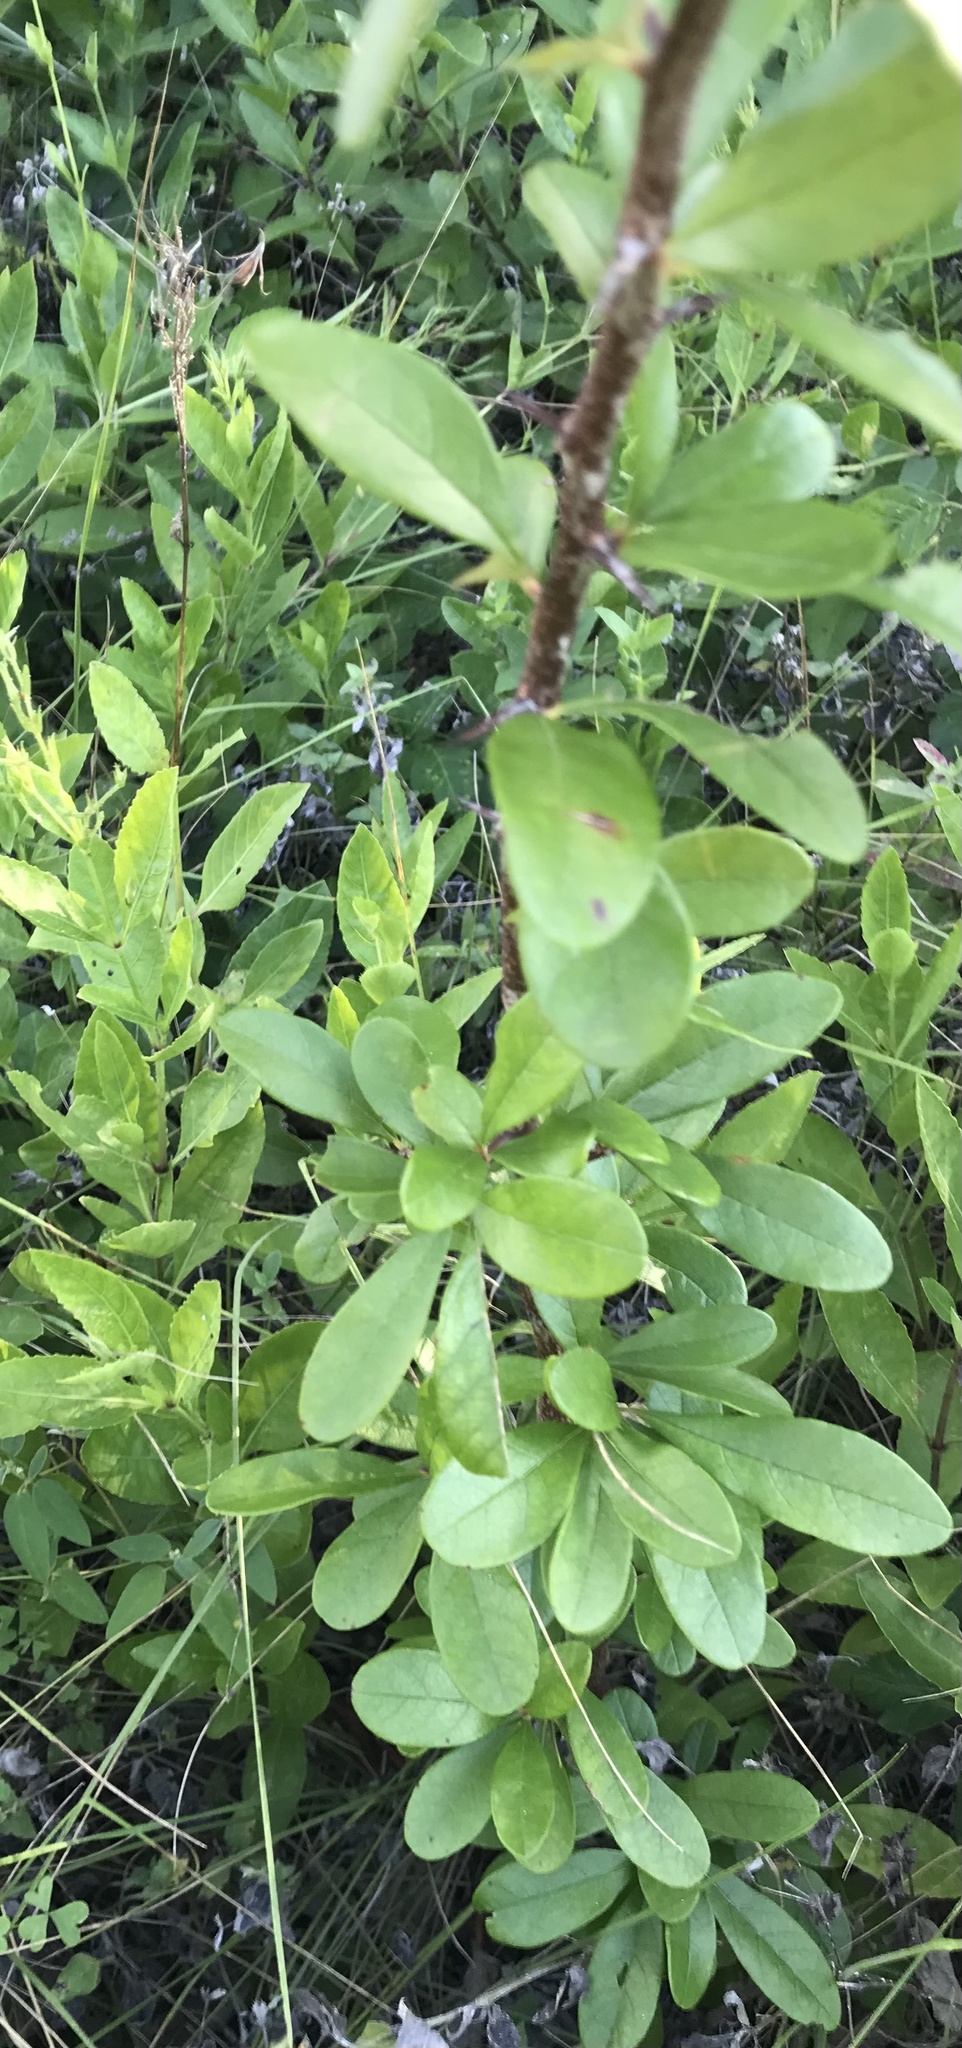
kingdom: Plantae
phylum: Tracheophyta
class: Magnoliopsida
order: Ericales
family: Sapotaceae
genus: Sideroxylon
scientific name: Sideroxylon lanuginosum
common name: Chittamwood
